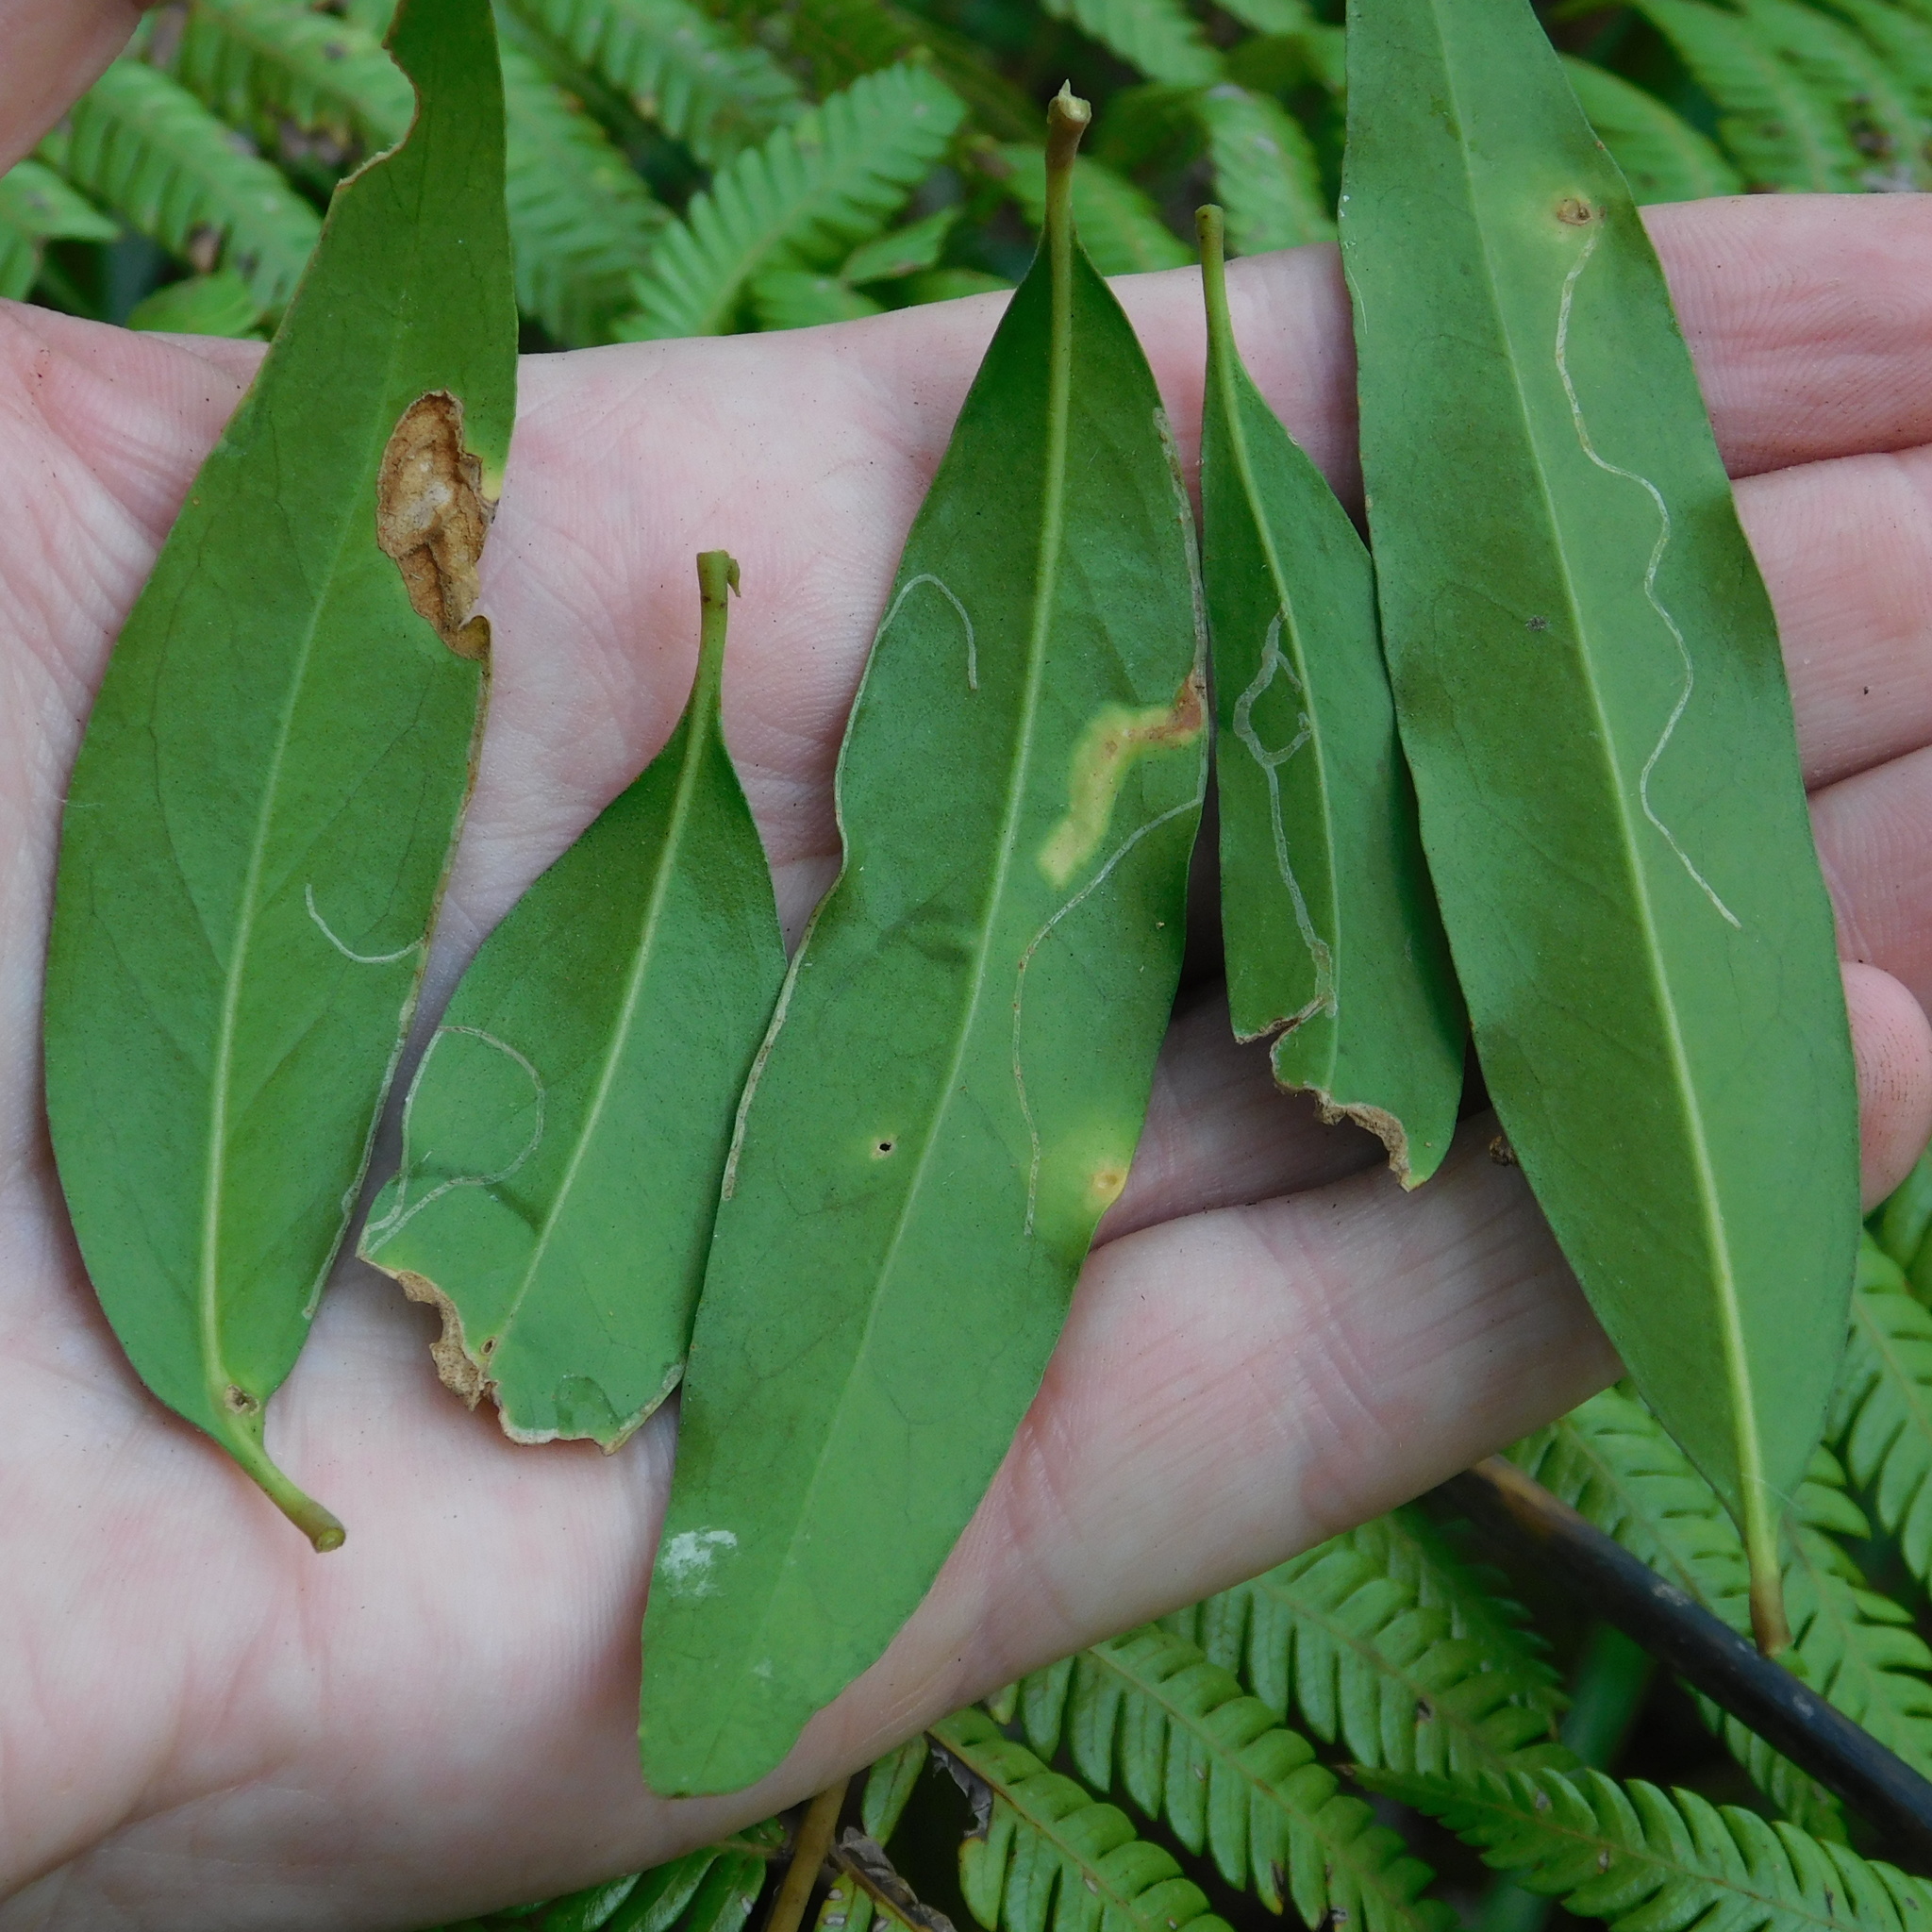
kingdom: Animalia
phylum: Arthropoda
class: Insecta
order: Lepidoptera
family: Gracillariidae
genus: Caloptilia
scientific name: Caloptilia chalcodelta
